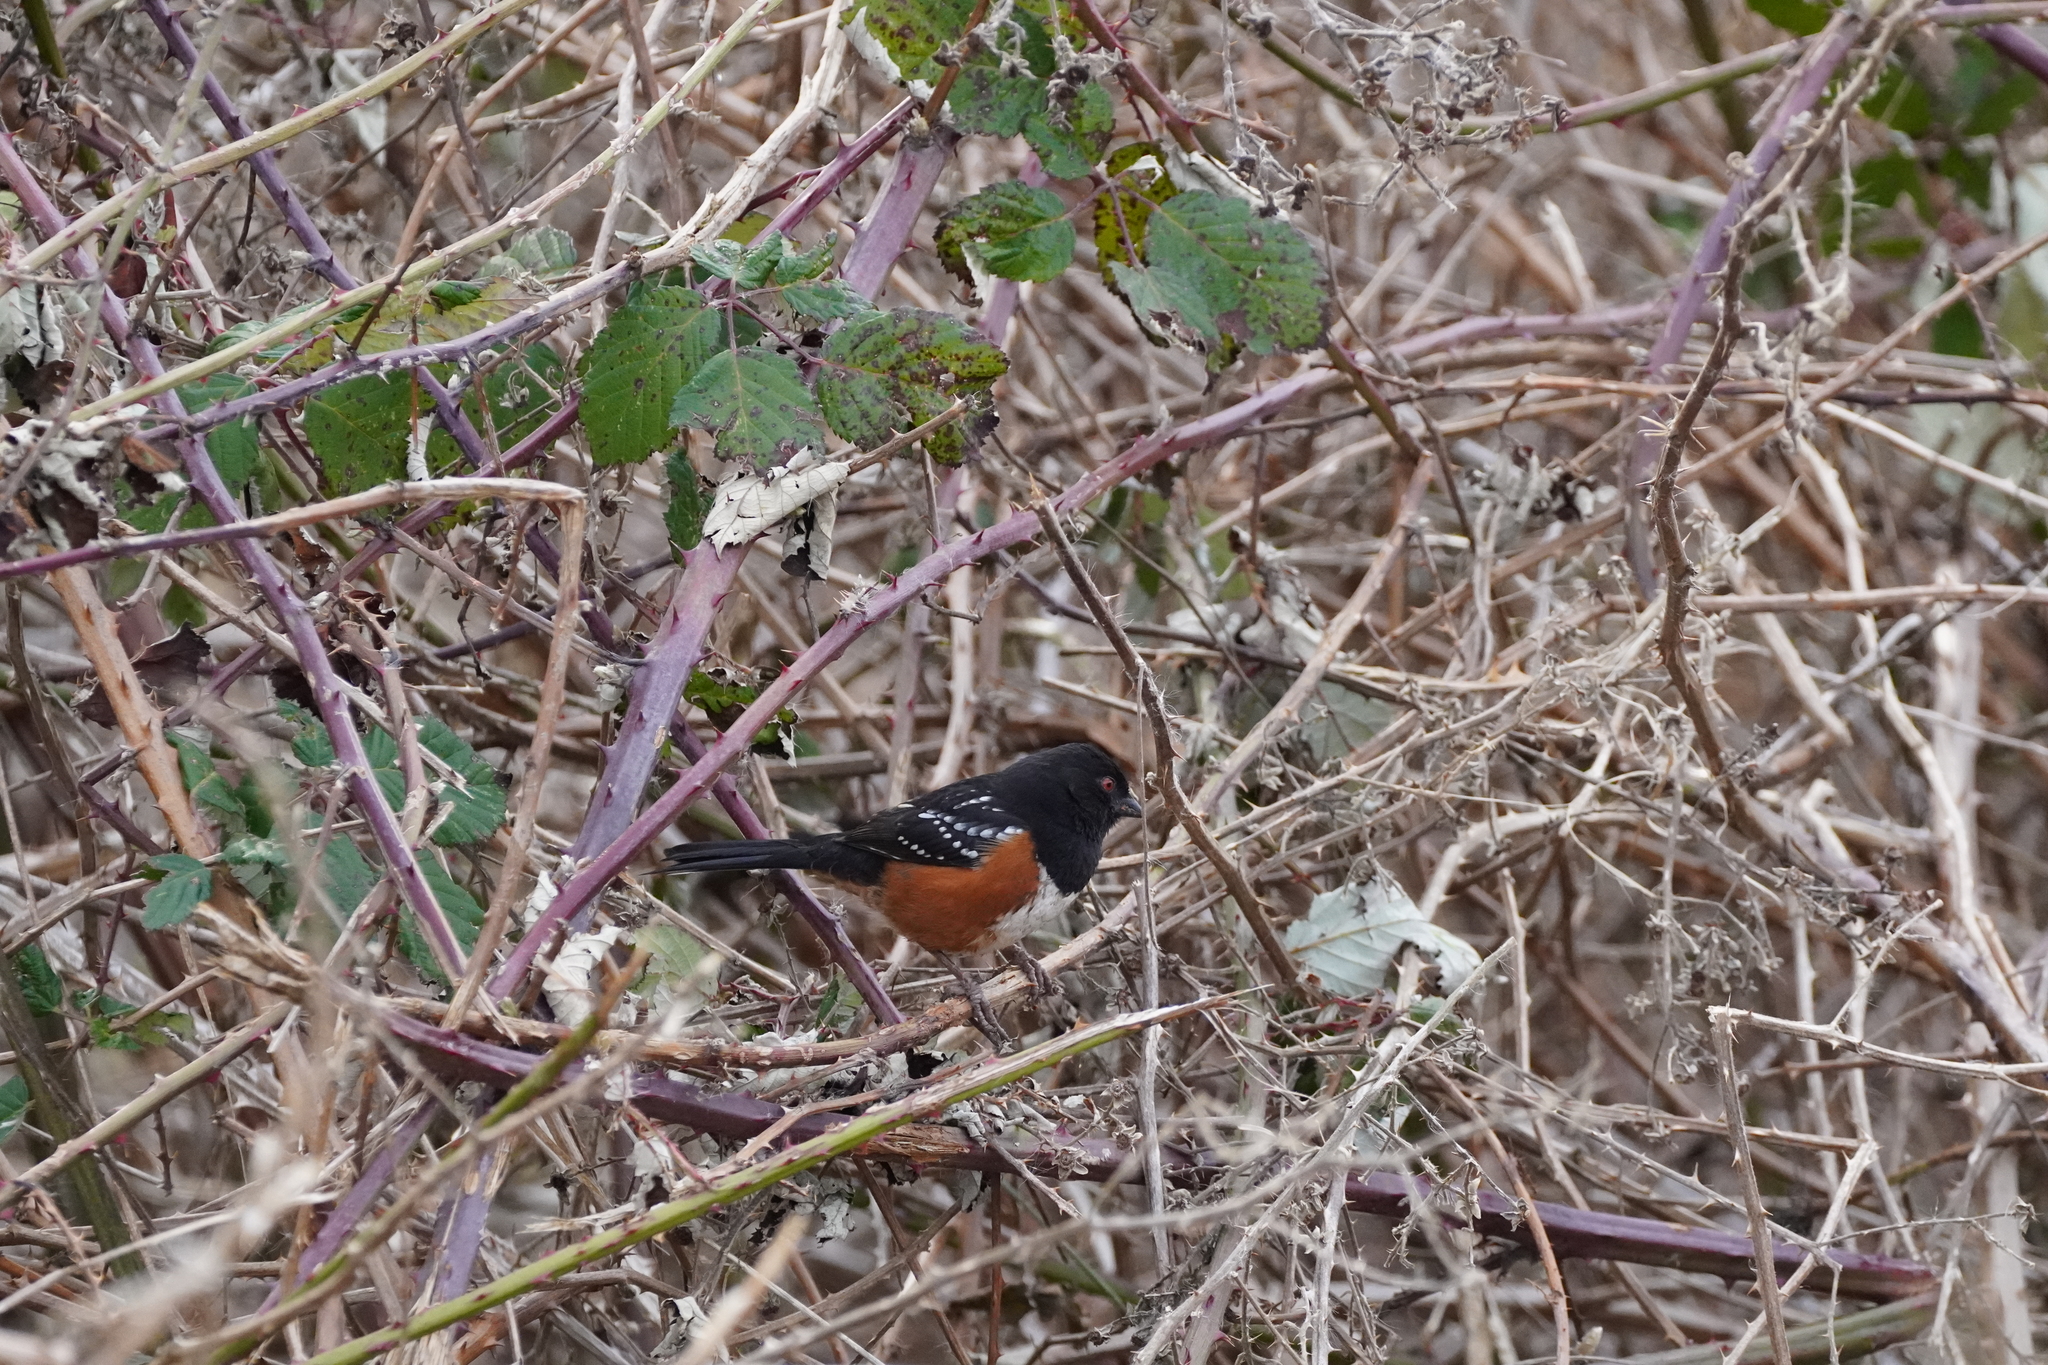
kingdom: Animalia
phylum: Chordata
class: Aves
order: Passeriformes
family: Passerellidae
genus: Pipilo
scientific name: Pipilo maculatus
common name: Spotted towhee
